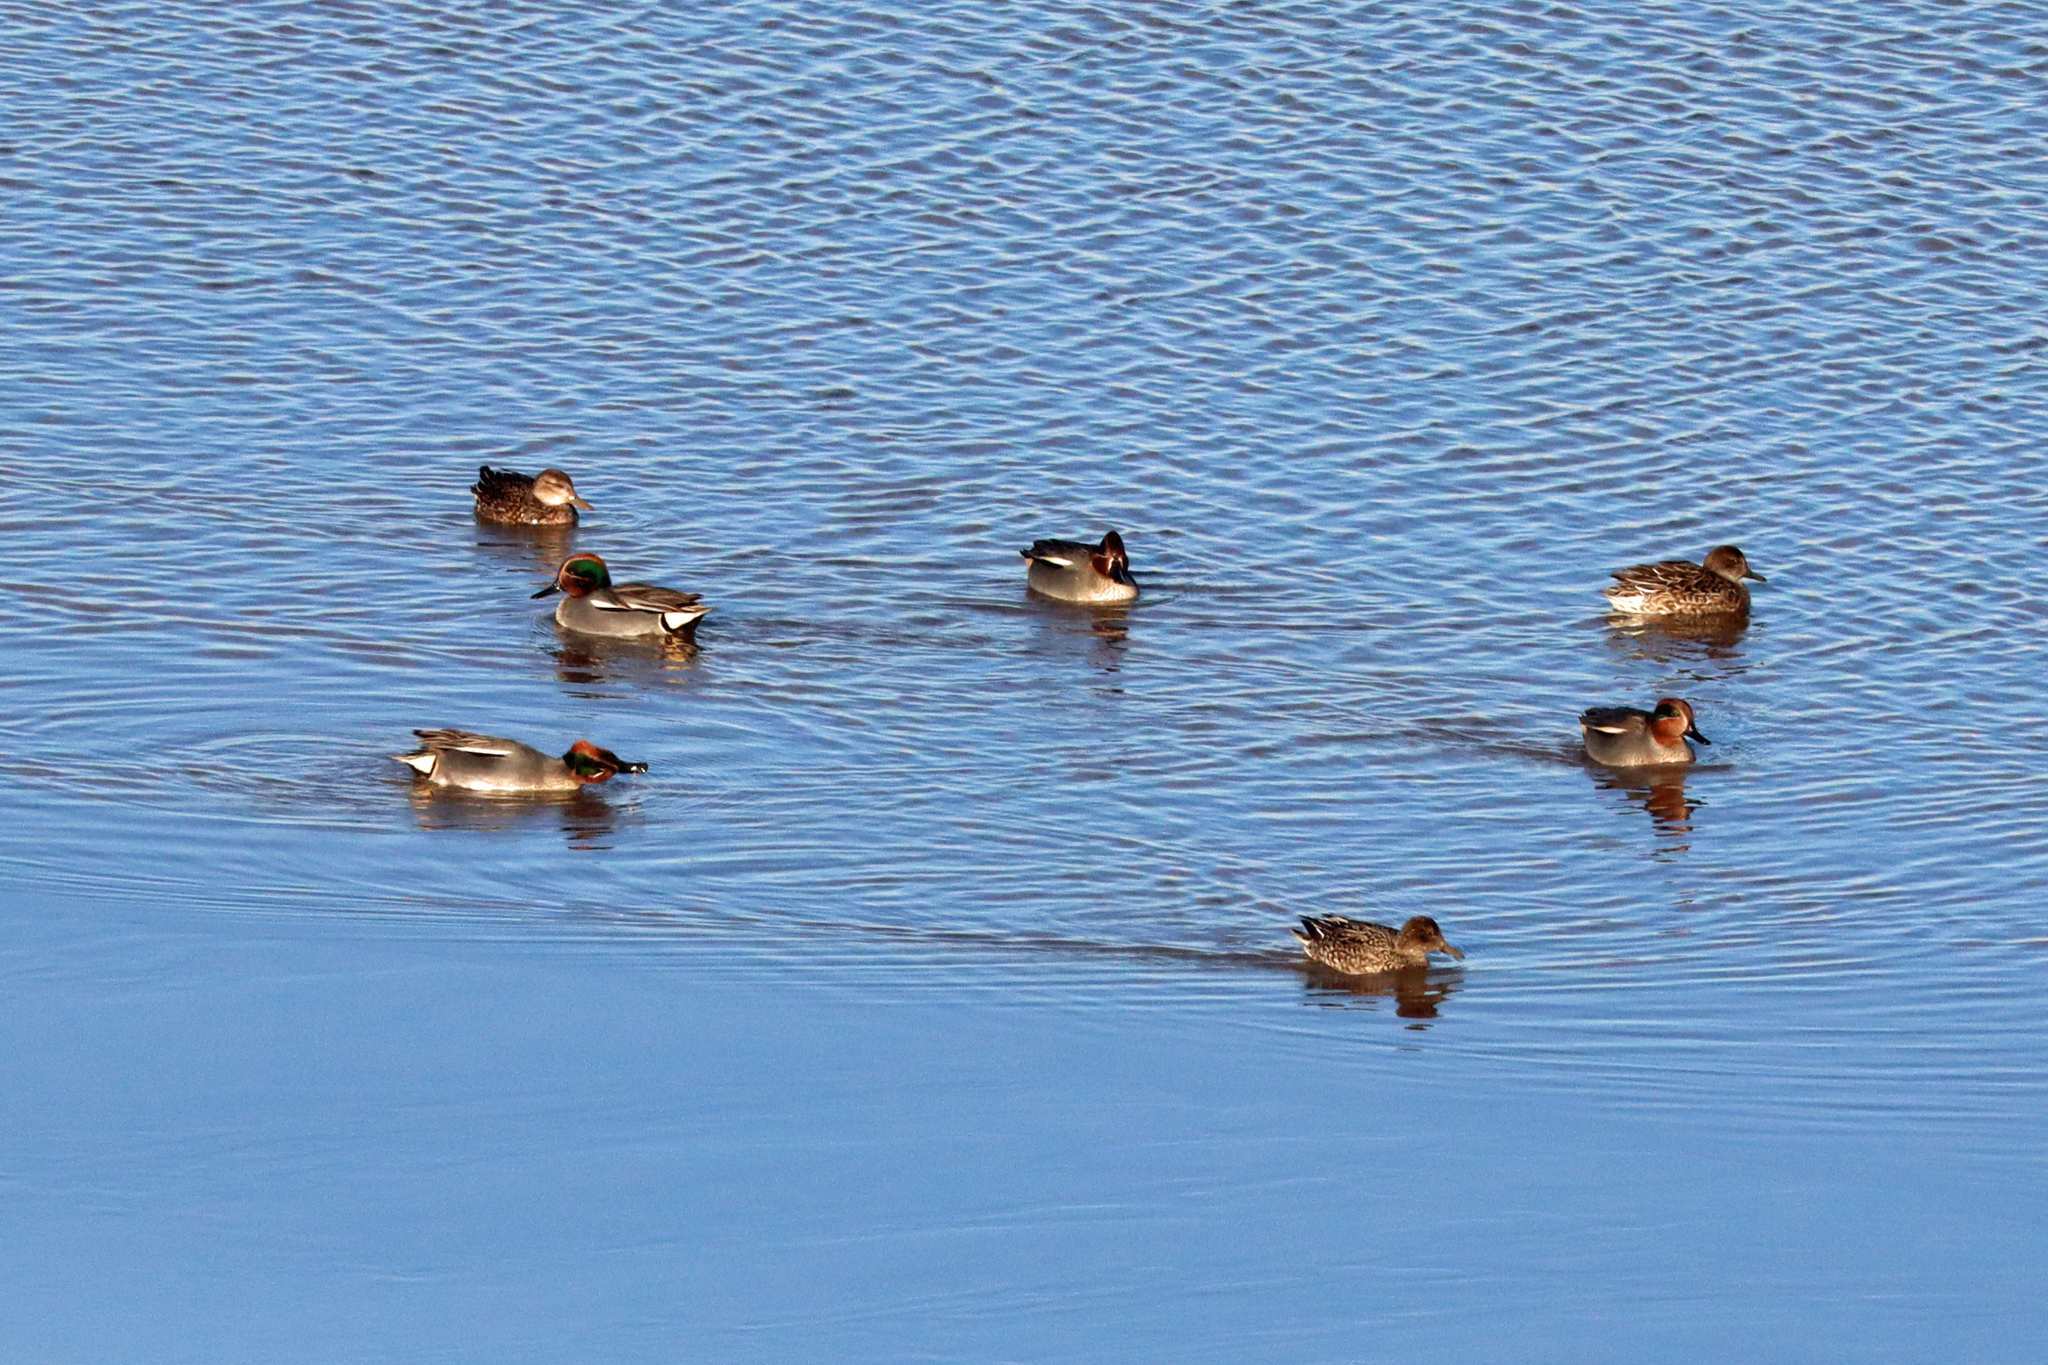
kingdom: Animalia
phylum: Chordata
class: Aves
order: Anseriformes
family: Anatidae
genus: Anas
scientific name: Anas crecca
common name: Eurasian teal
